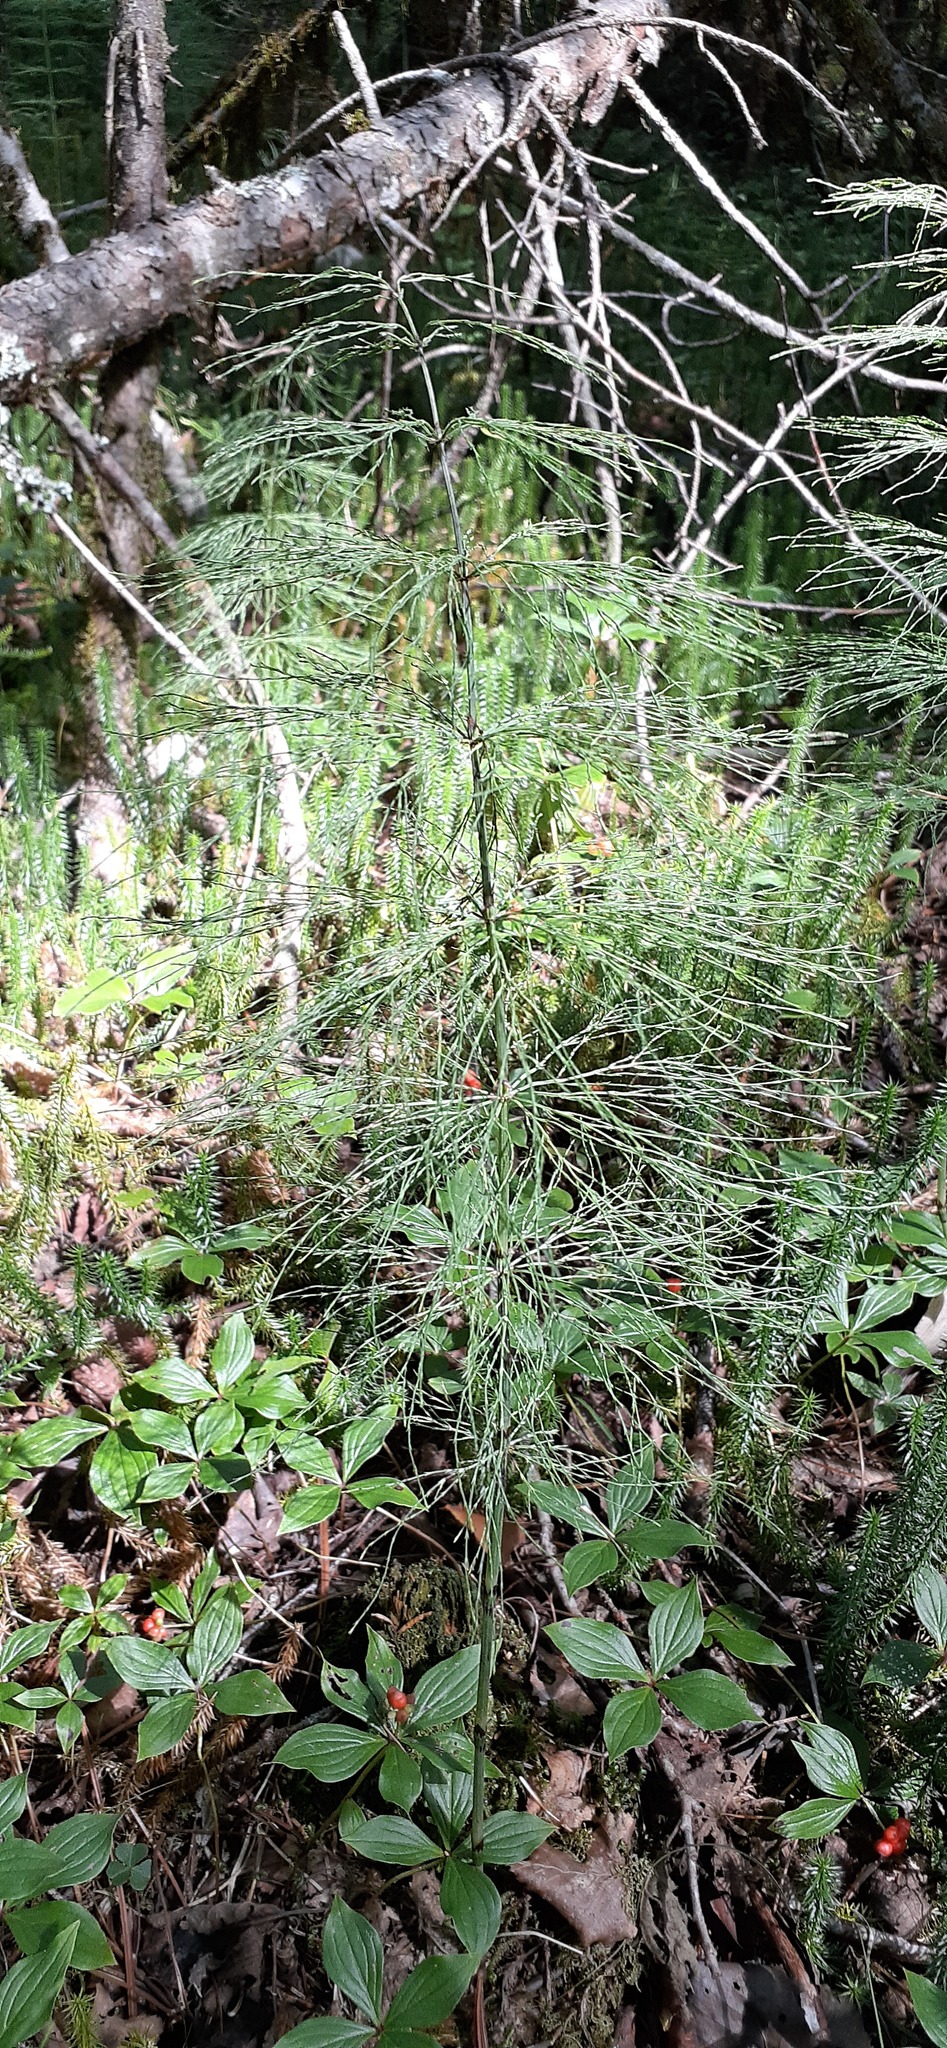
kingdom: Plantae
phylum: Tracheophyta
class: Polypodiopsida
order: Equisetales
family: Equisetaceae
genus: Equisetum
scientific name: Equisetum sylvaticum
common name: Wood horsetail
